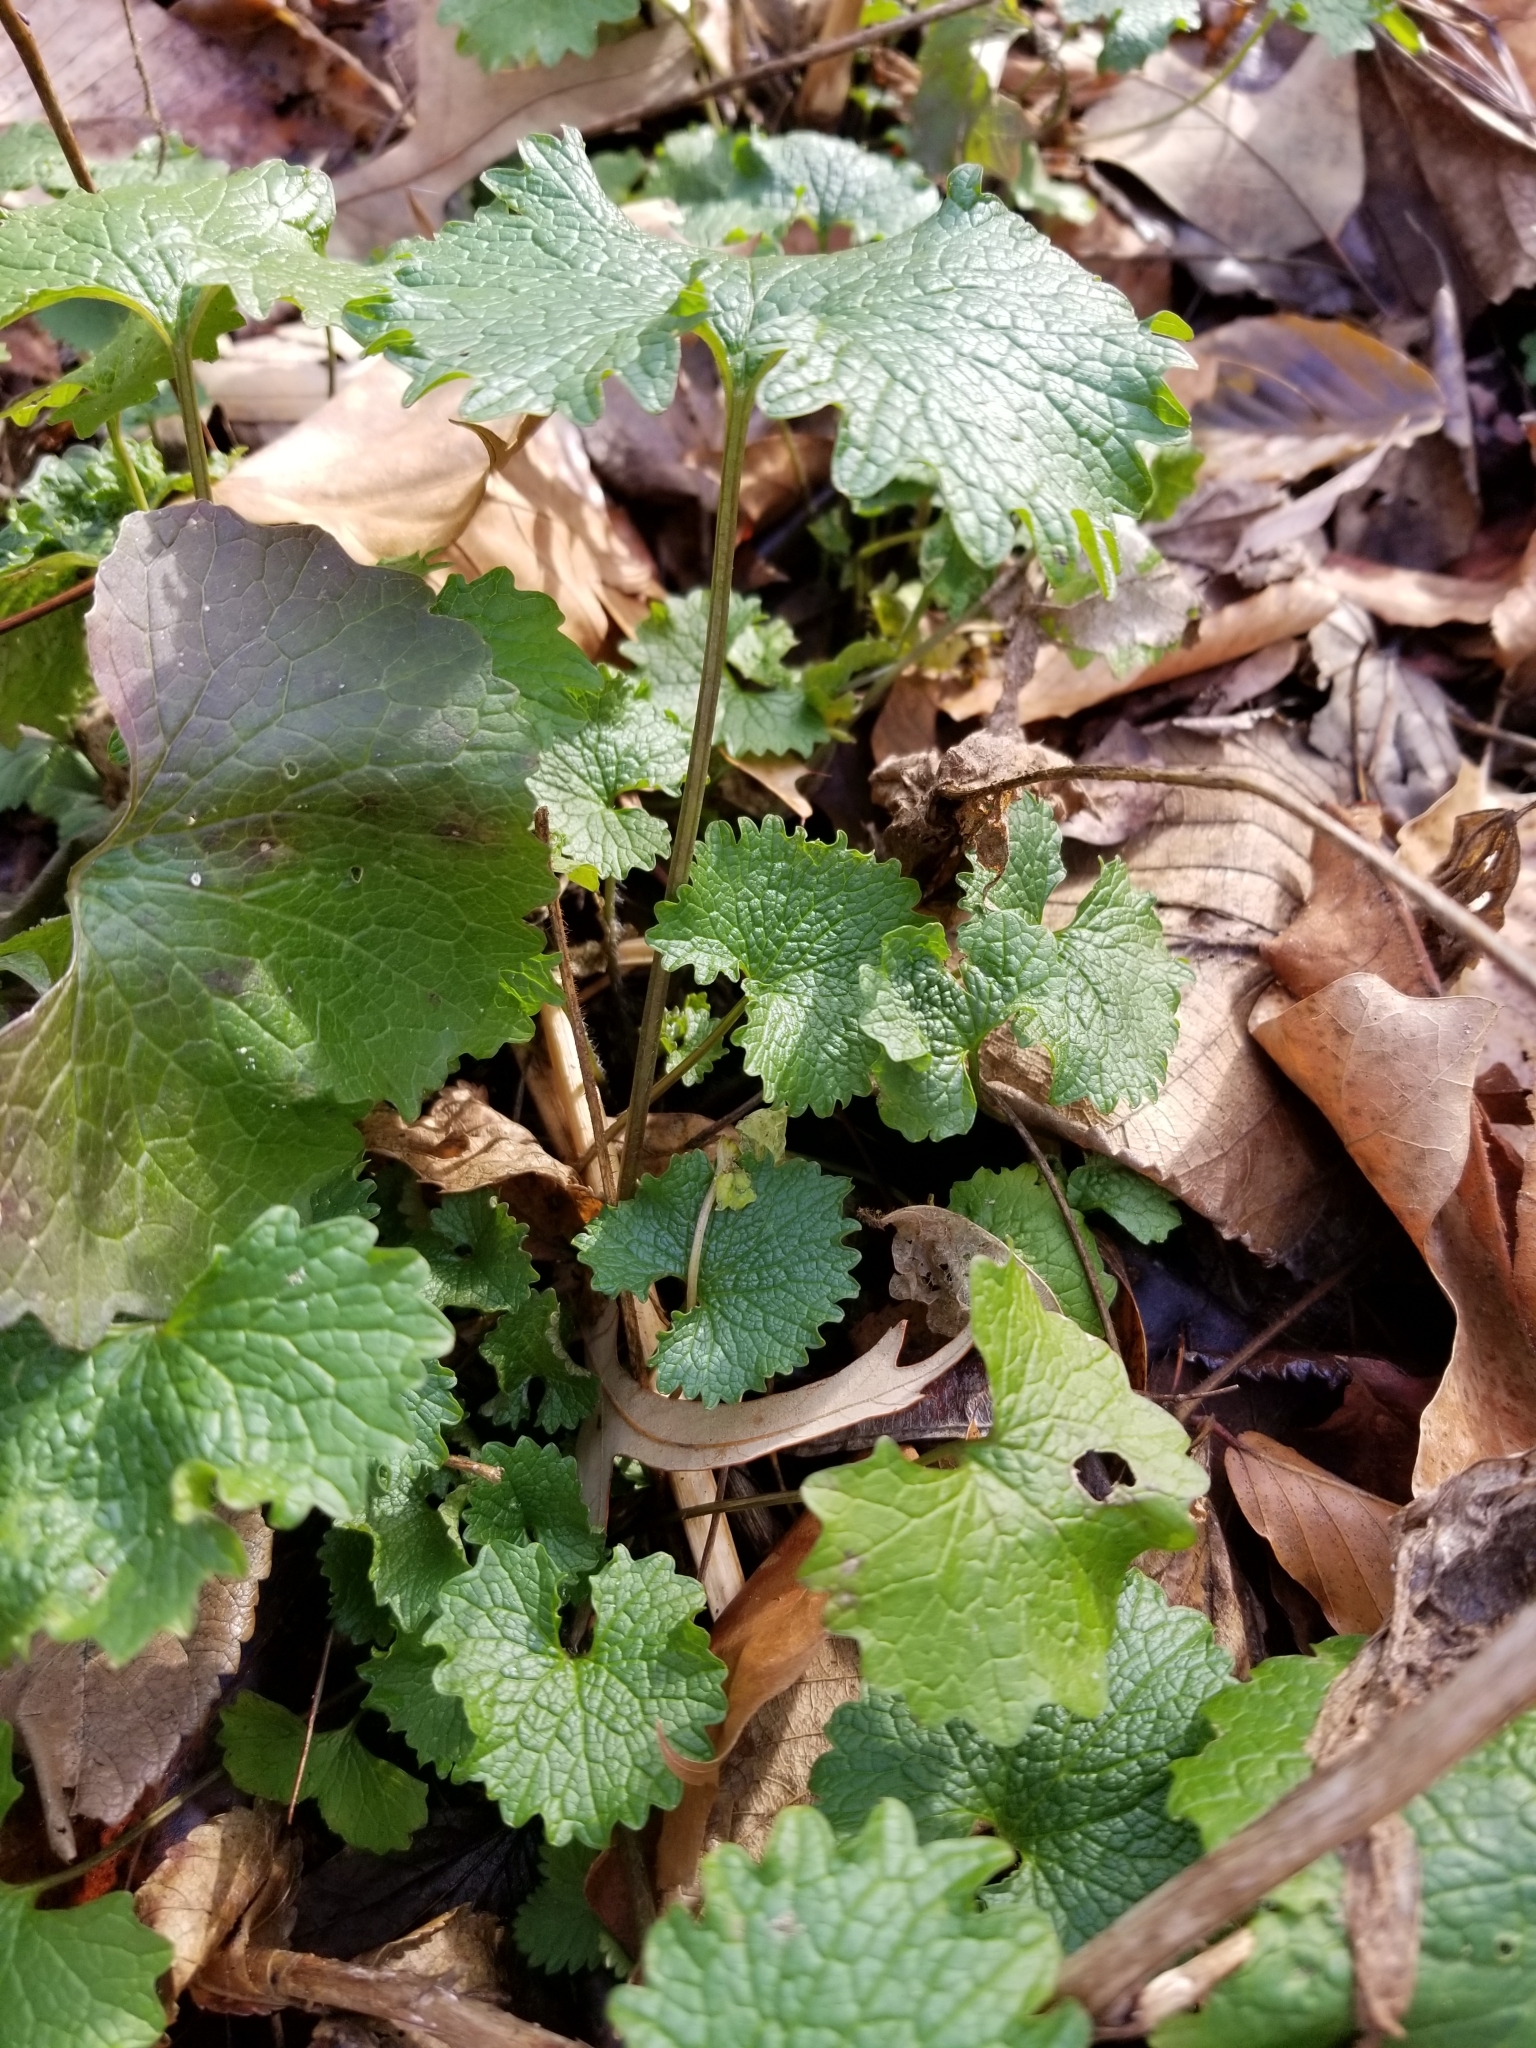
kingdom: Plantae
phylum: Tracheophyta
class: Magnoliopsida
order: Brassicales
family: Brassicaceae
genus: Alliaria
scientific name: Alliaria petiolata
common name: Garlic mustard
